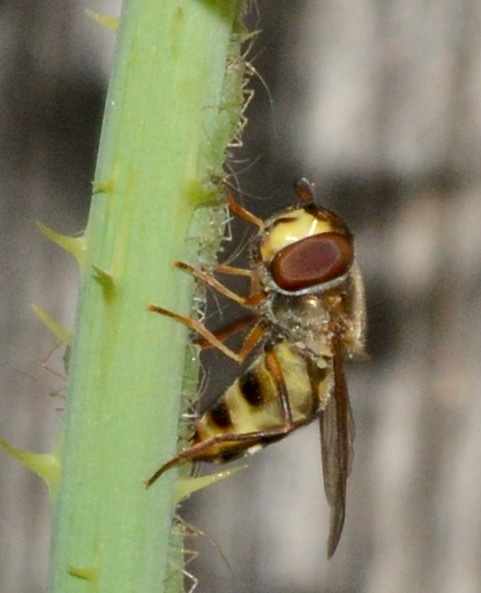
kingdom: Animalia
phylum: Arthropoda
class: Insecta
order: Diptera
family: Syrphidae
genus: Eupeodes
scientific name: Eupeodes
